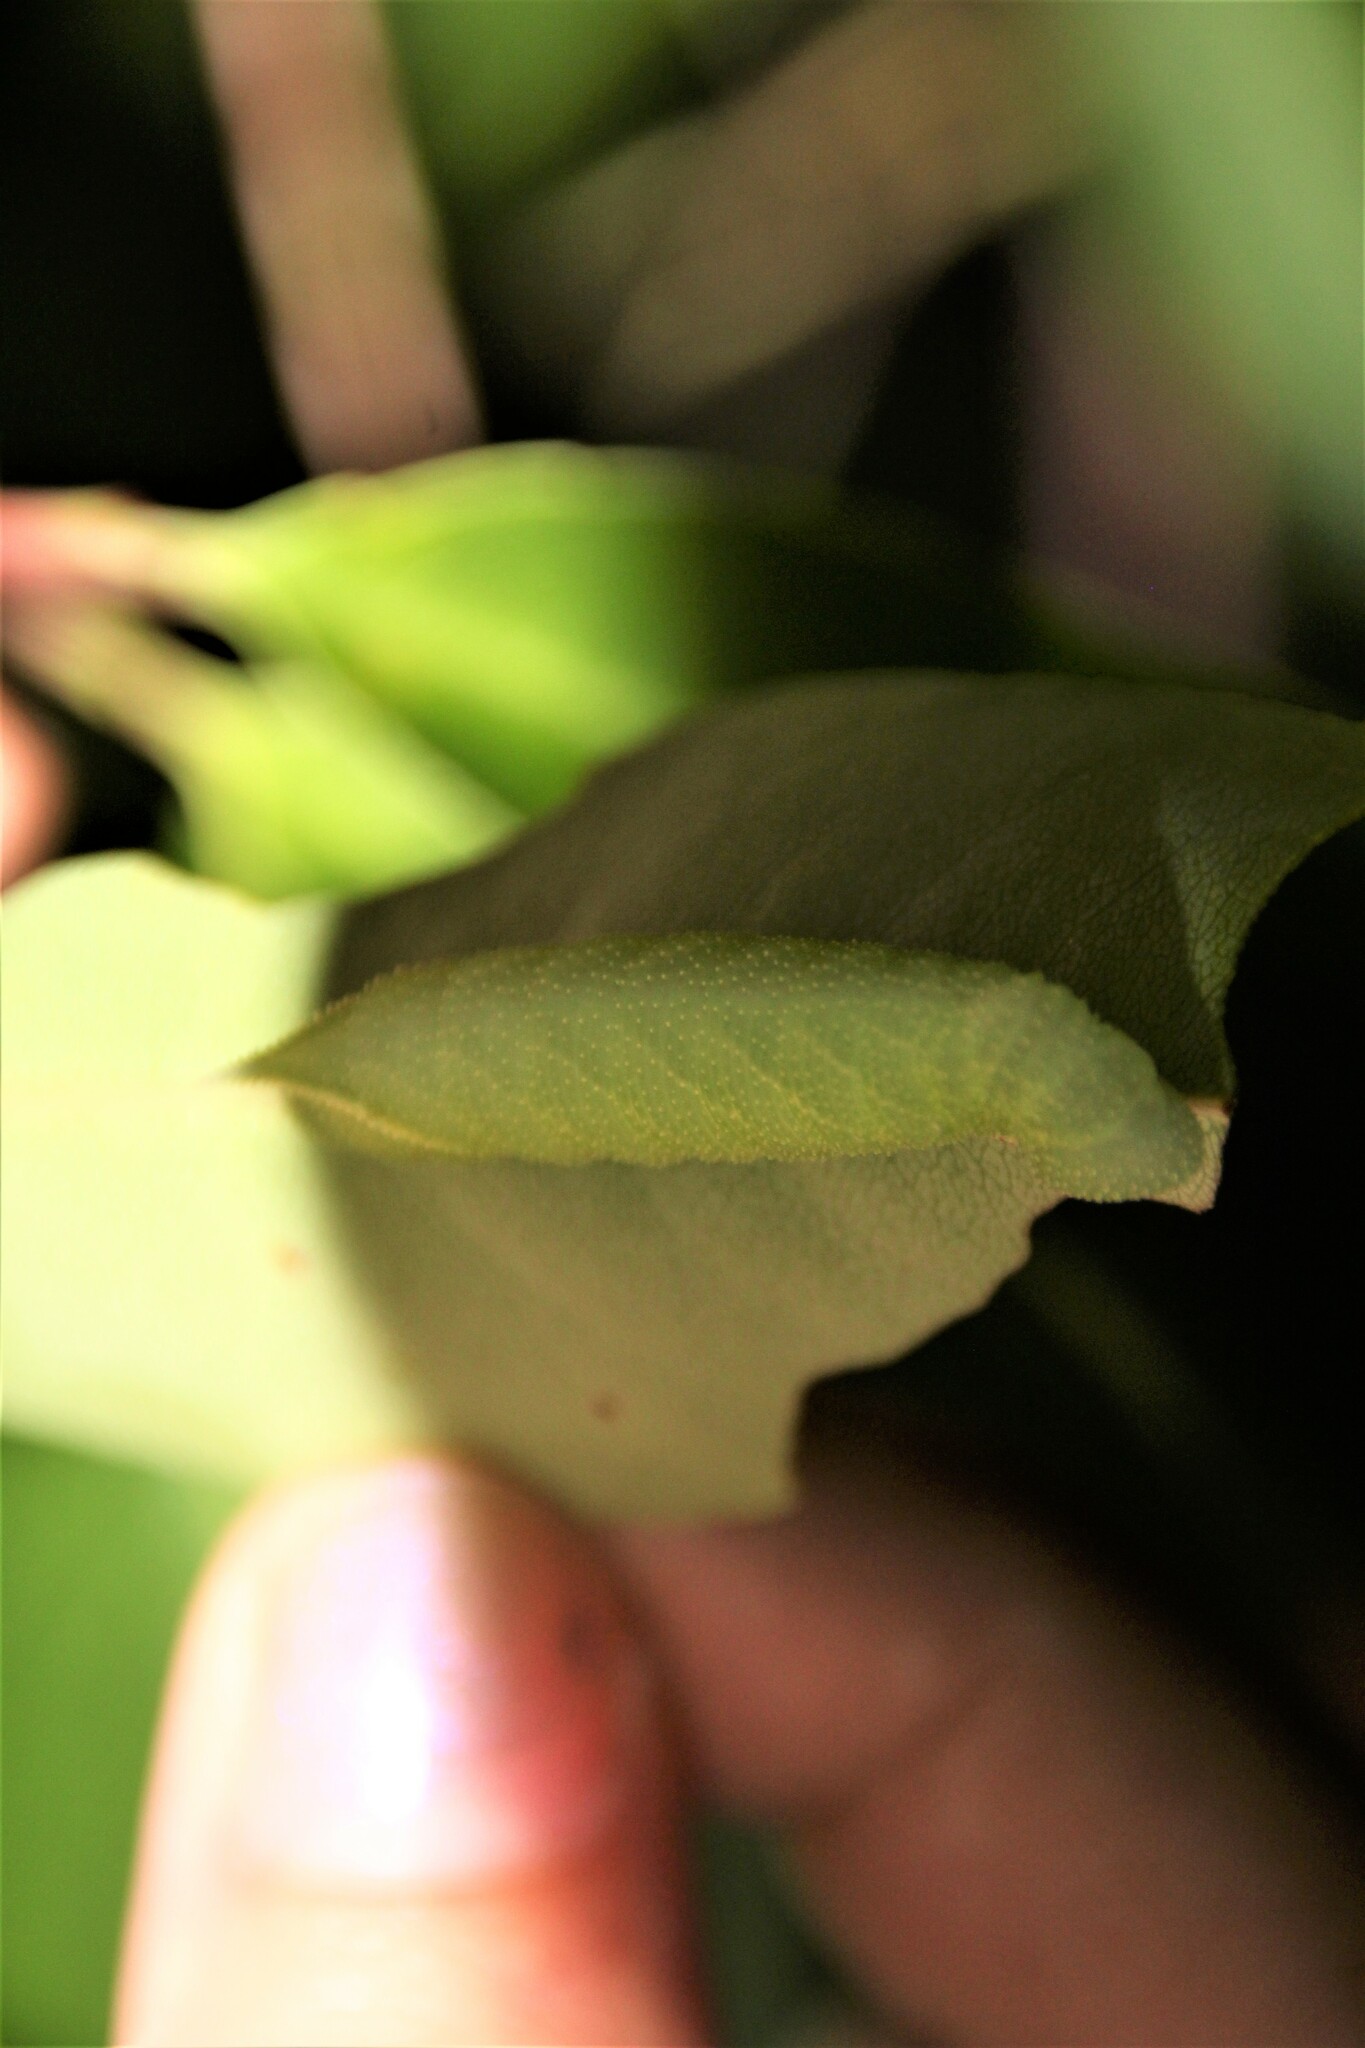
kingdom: Animalia
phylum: Arthropoda
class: Insecta
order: Lepidoptera
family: Sphingidae
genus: Paonias
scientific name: Paonias myops
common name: Small-eyed sphinx
